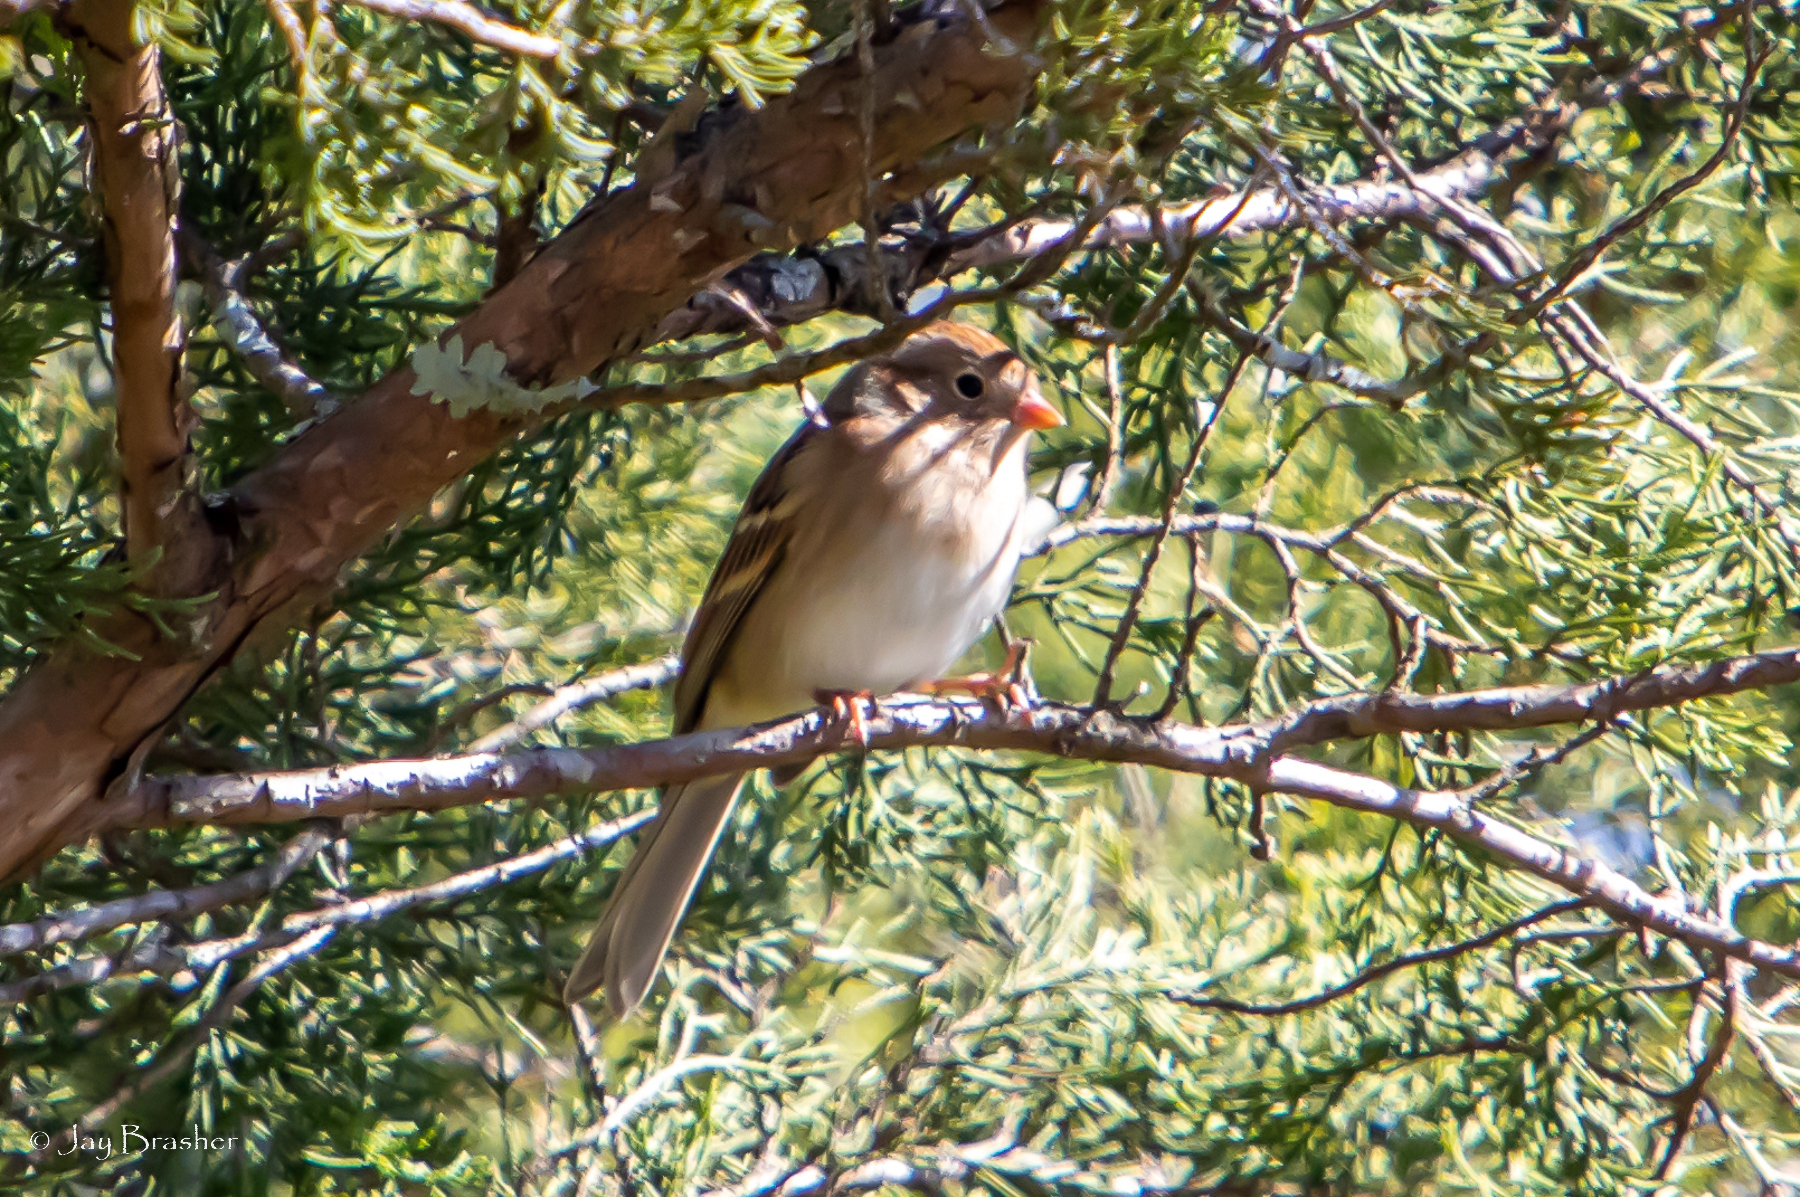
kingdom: Animalia
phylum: Chordata
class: Aves
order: Passeriformes
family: Passerellidae
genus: Spizella
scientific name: Spizella pusilla
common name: Field sparrow
